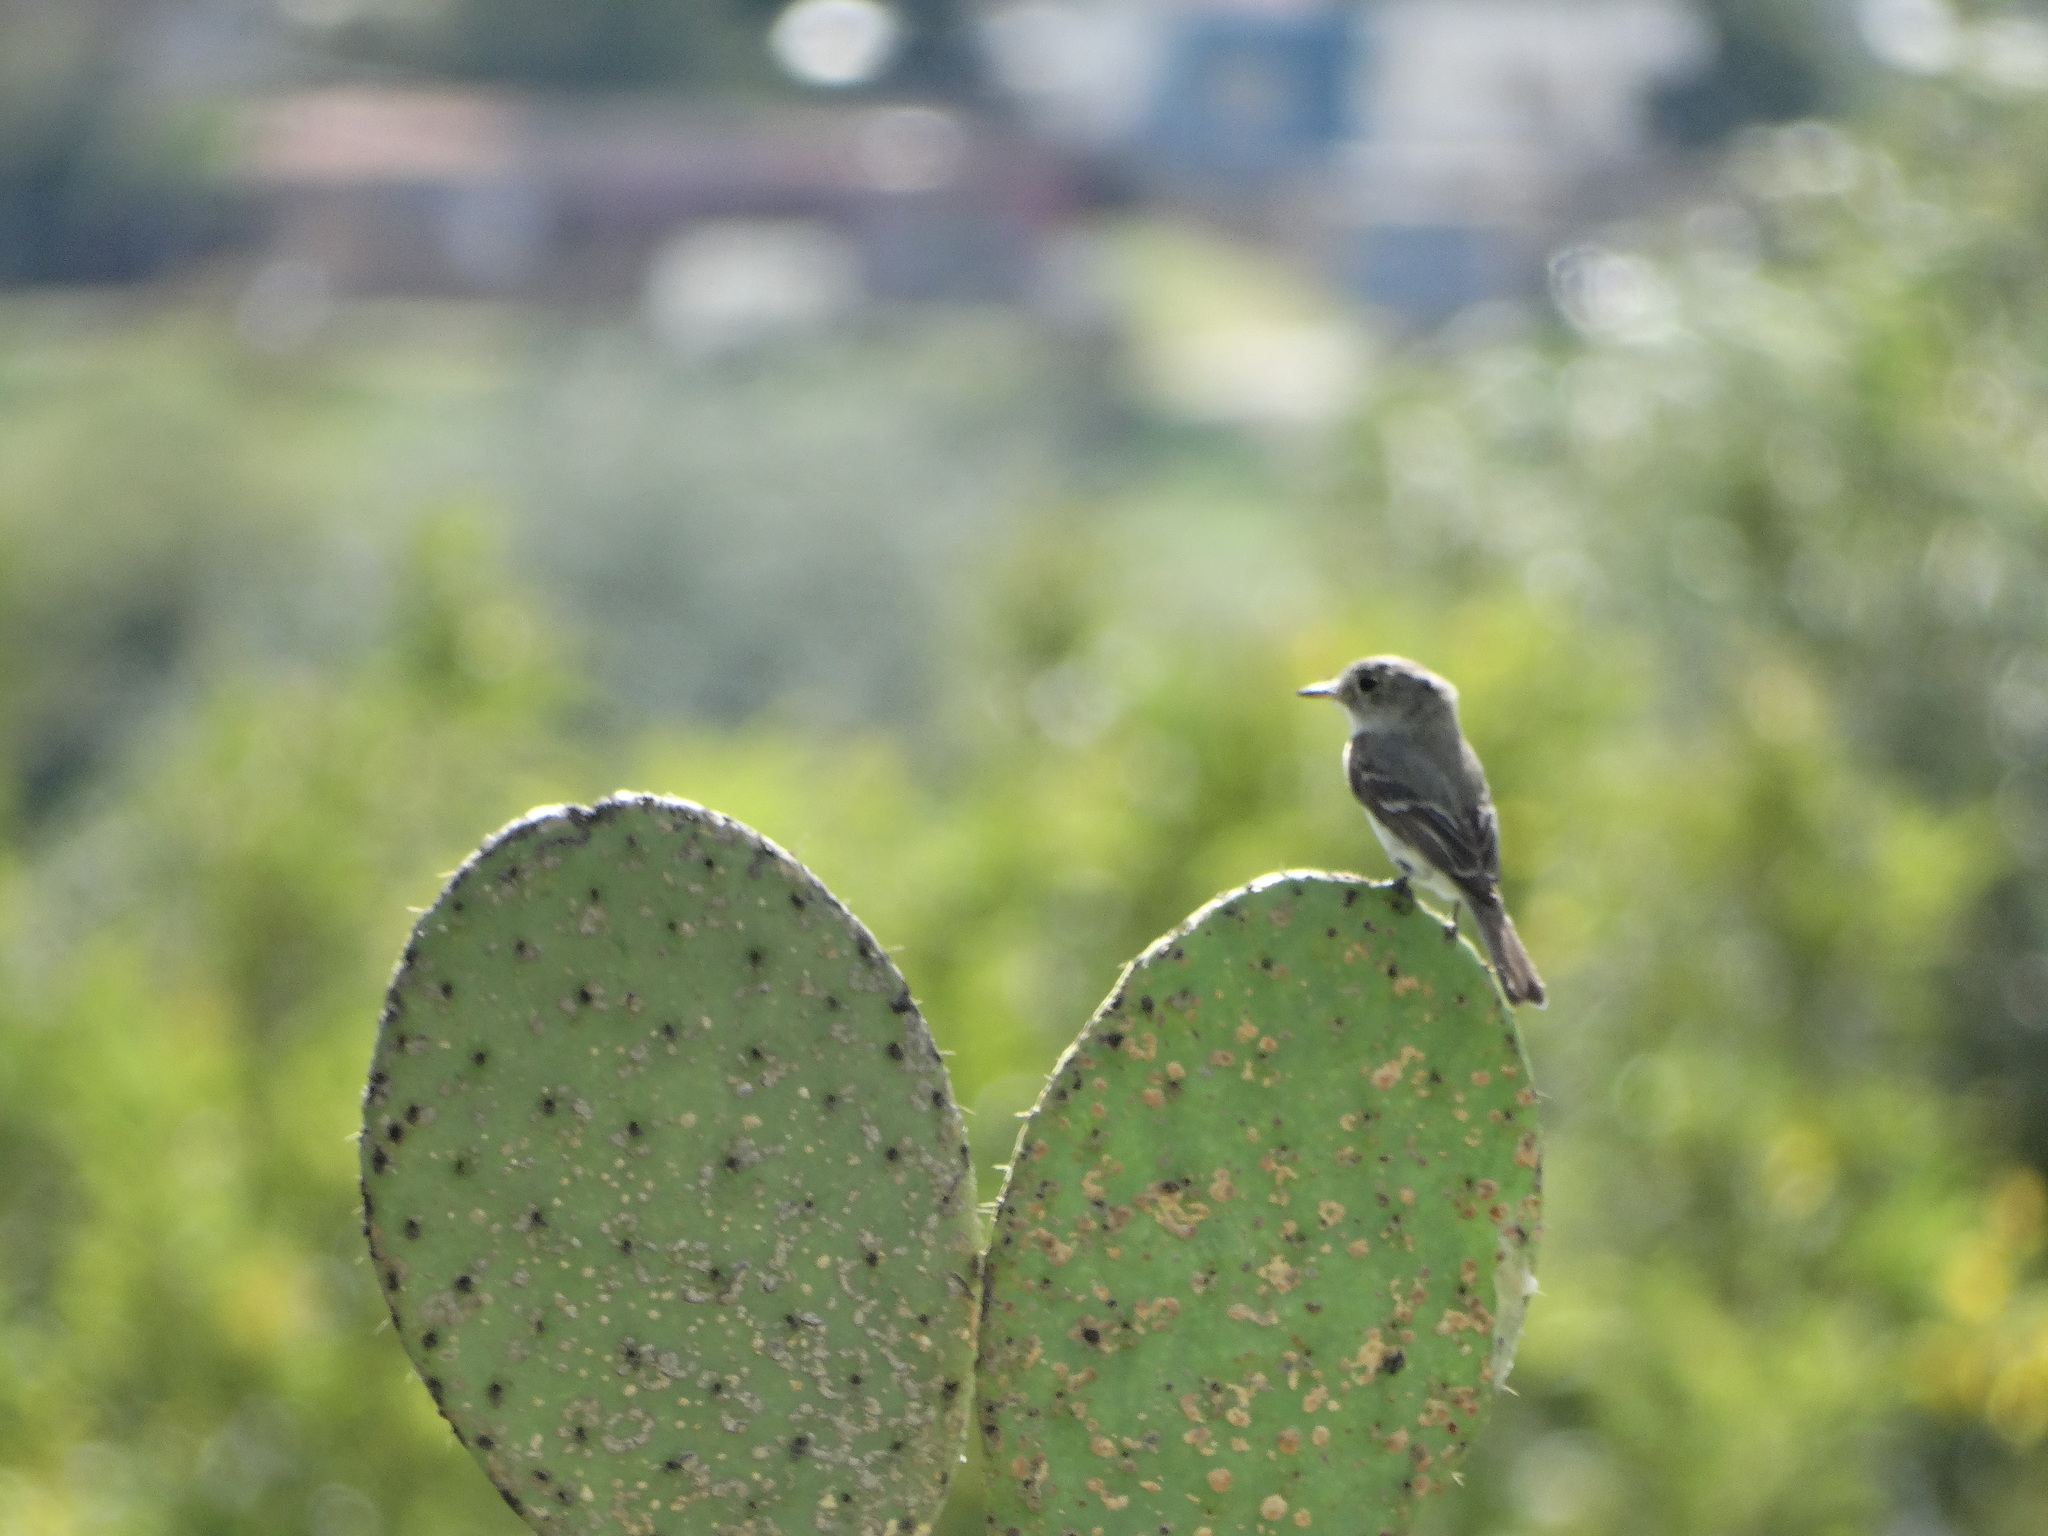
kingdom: Animalia
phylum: Chordata
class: Aves
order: Passeriformes
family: Tyrannidae
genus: Empidonax
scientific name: Empidonax wrightii
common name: Gray flycatcher
